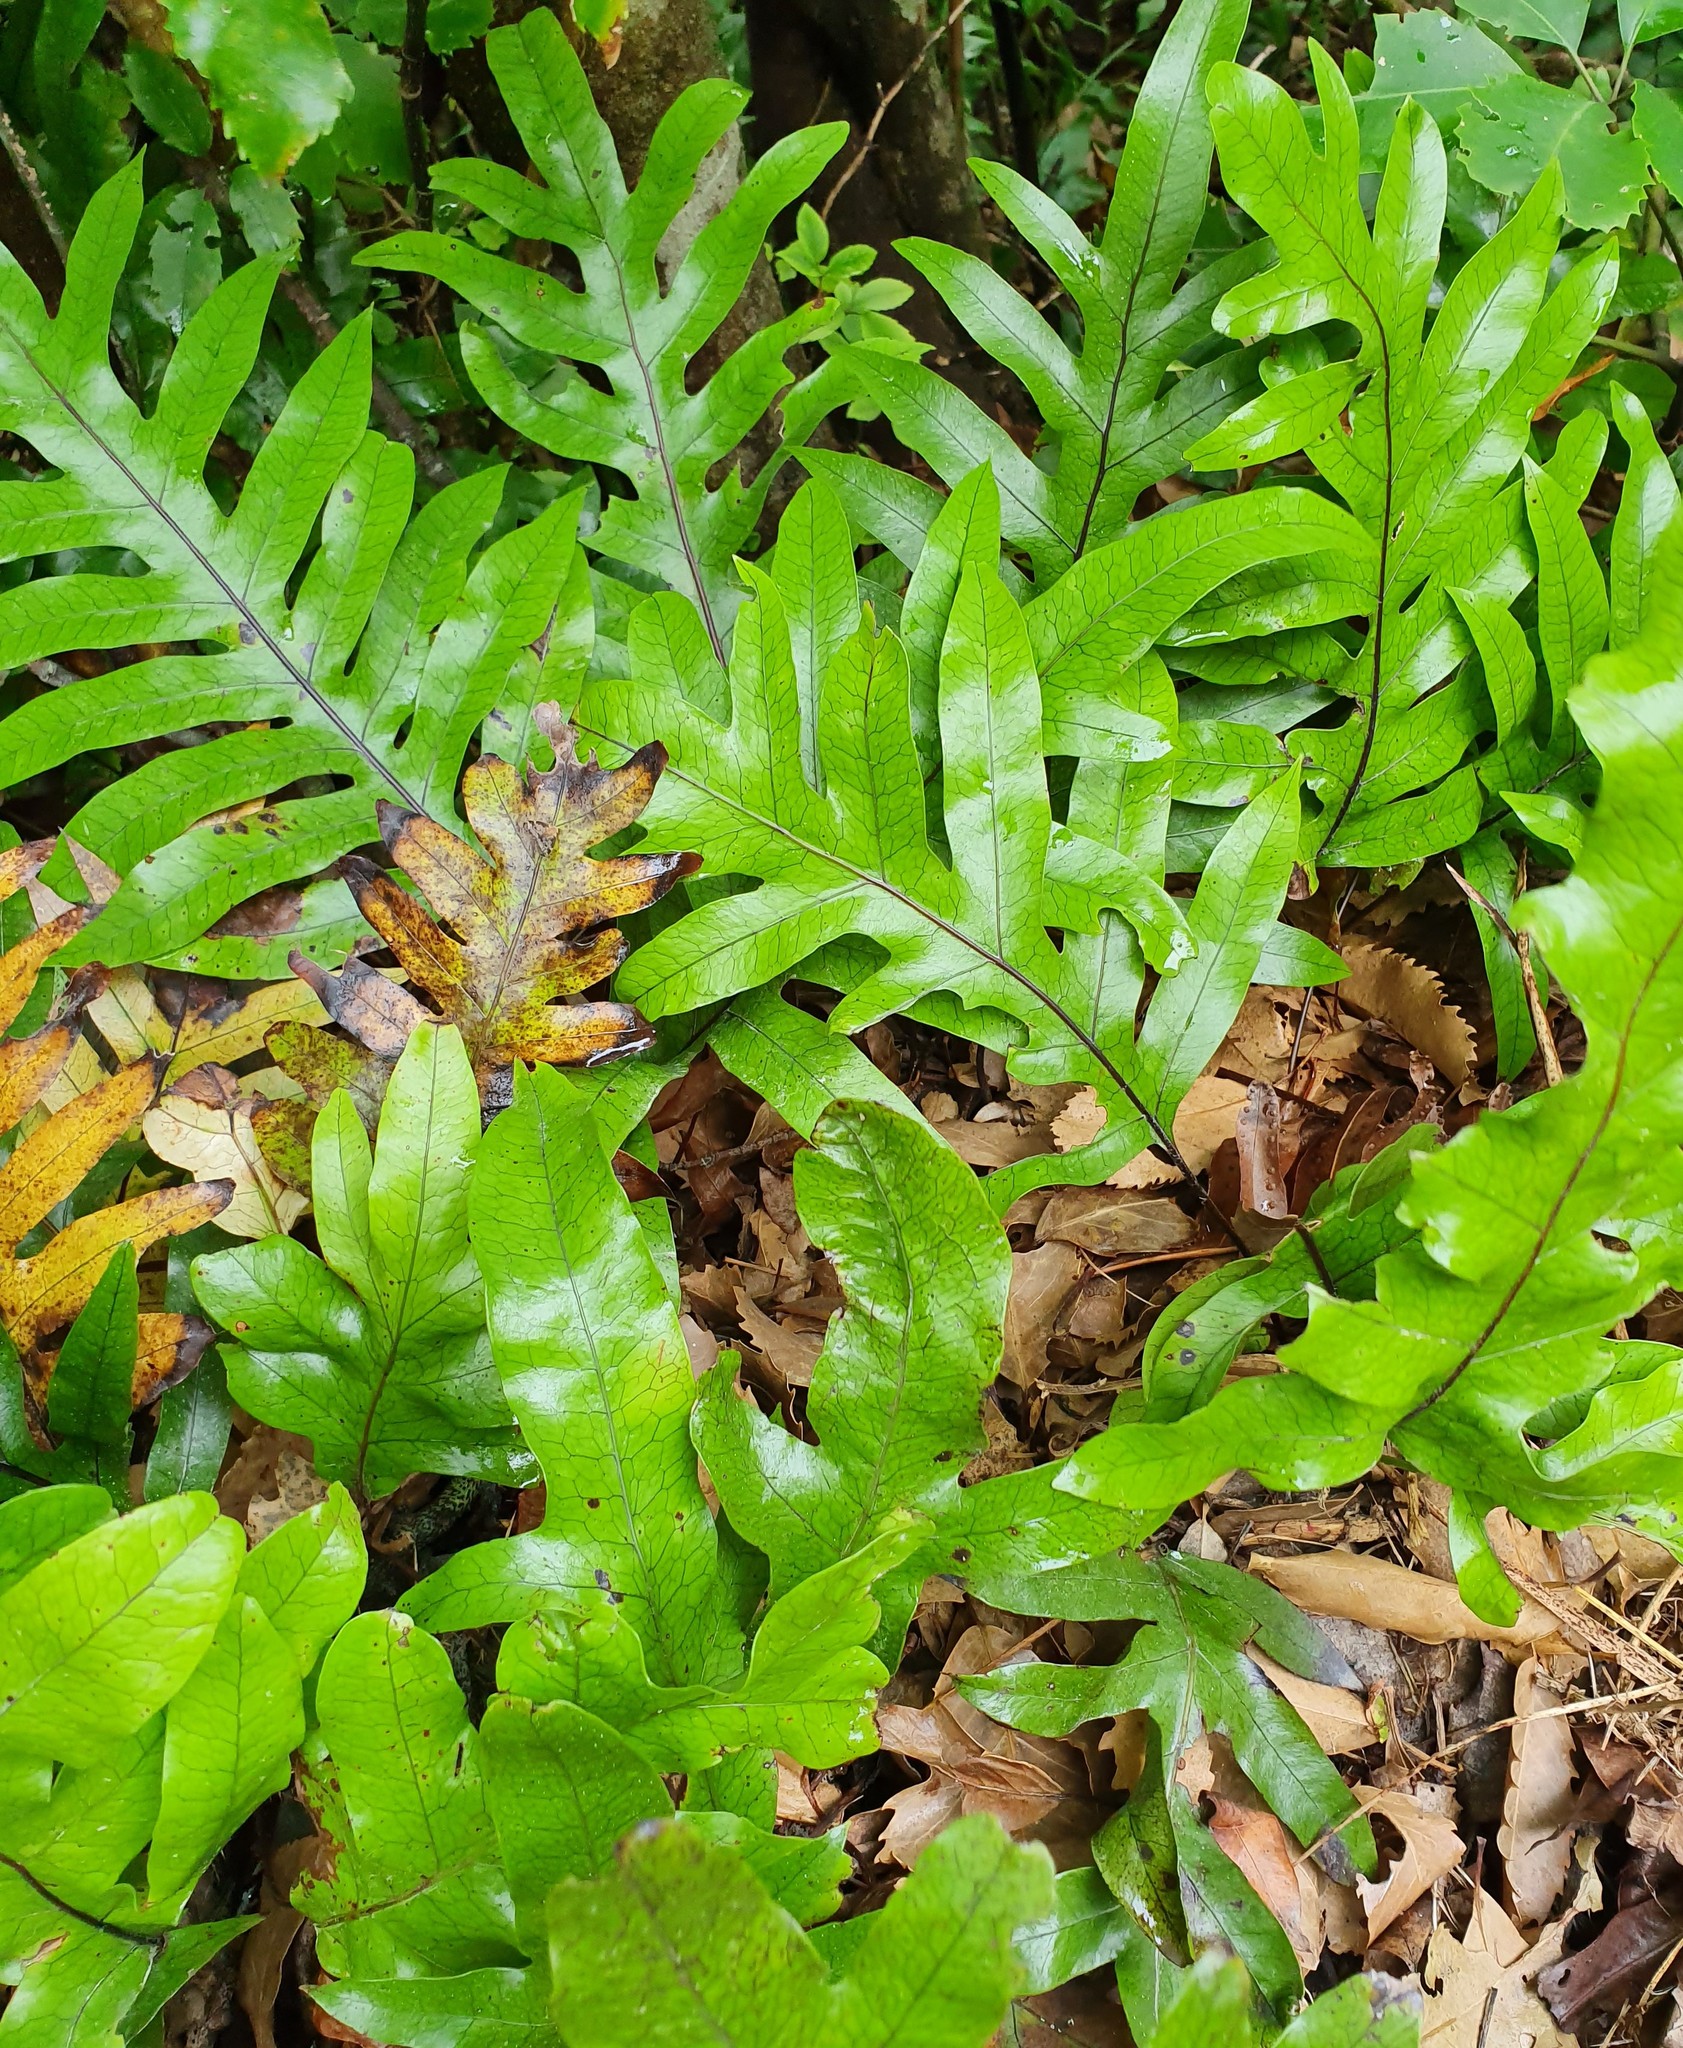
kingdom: Plantae
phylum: Tracheophyta
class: Polypodiopsida
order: Polypodiales
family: Polypodiaceae
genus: Lecanopteris
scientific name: Lecanopteris pustulata
